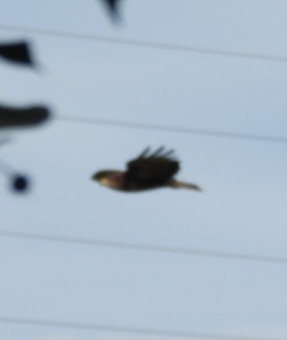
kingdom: Animalia
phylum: Chordata
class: Aves
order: Accipitriformes
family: Accipitridae
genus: Buteo
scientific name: Buteo buteo
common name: Common buzzard
